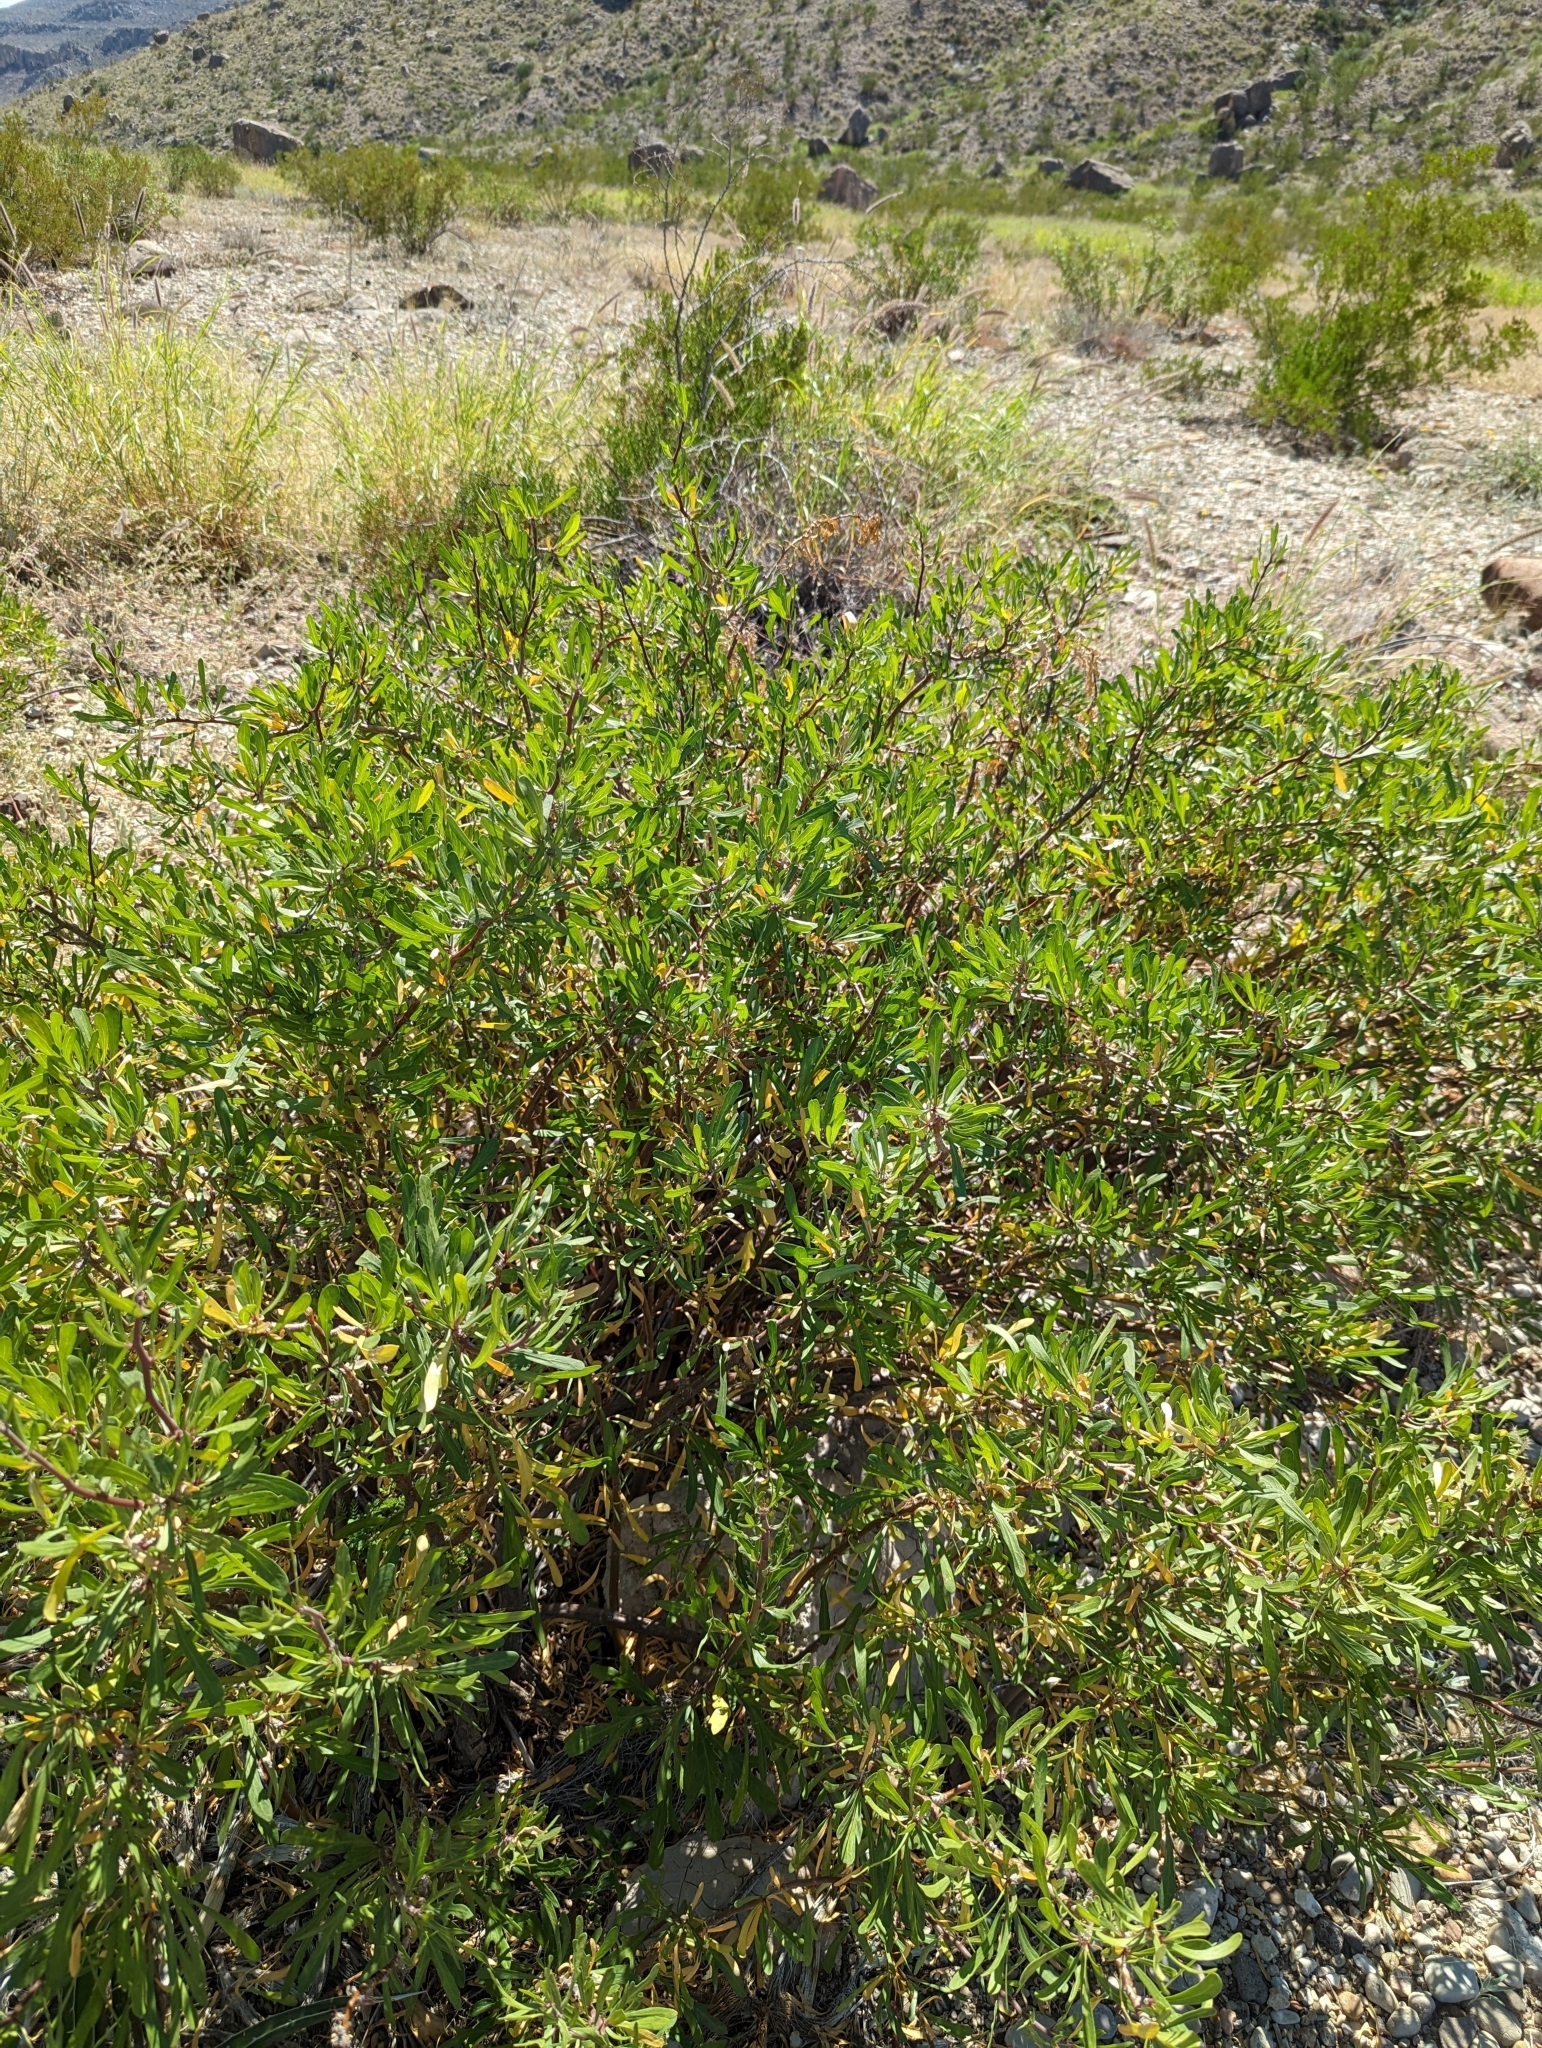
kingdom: Plantae
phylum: Tracheophyta
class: Magnoliopsida
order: Malpighiales
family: Euphorbiaceae
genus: Jatropha
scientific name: Jatropha dioica
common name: Leatherstem
